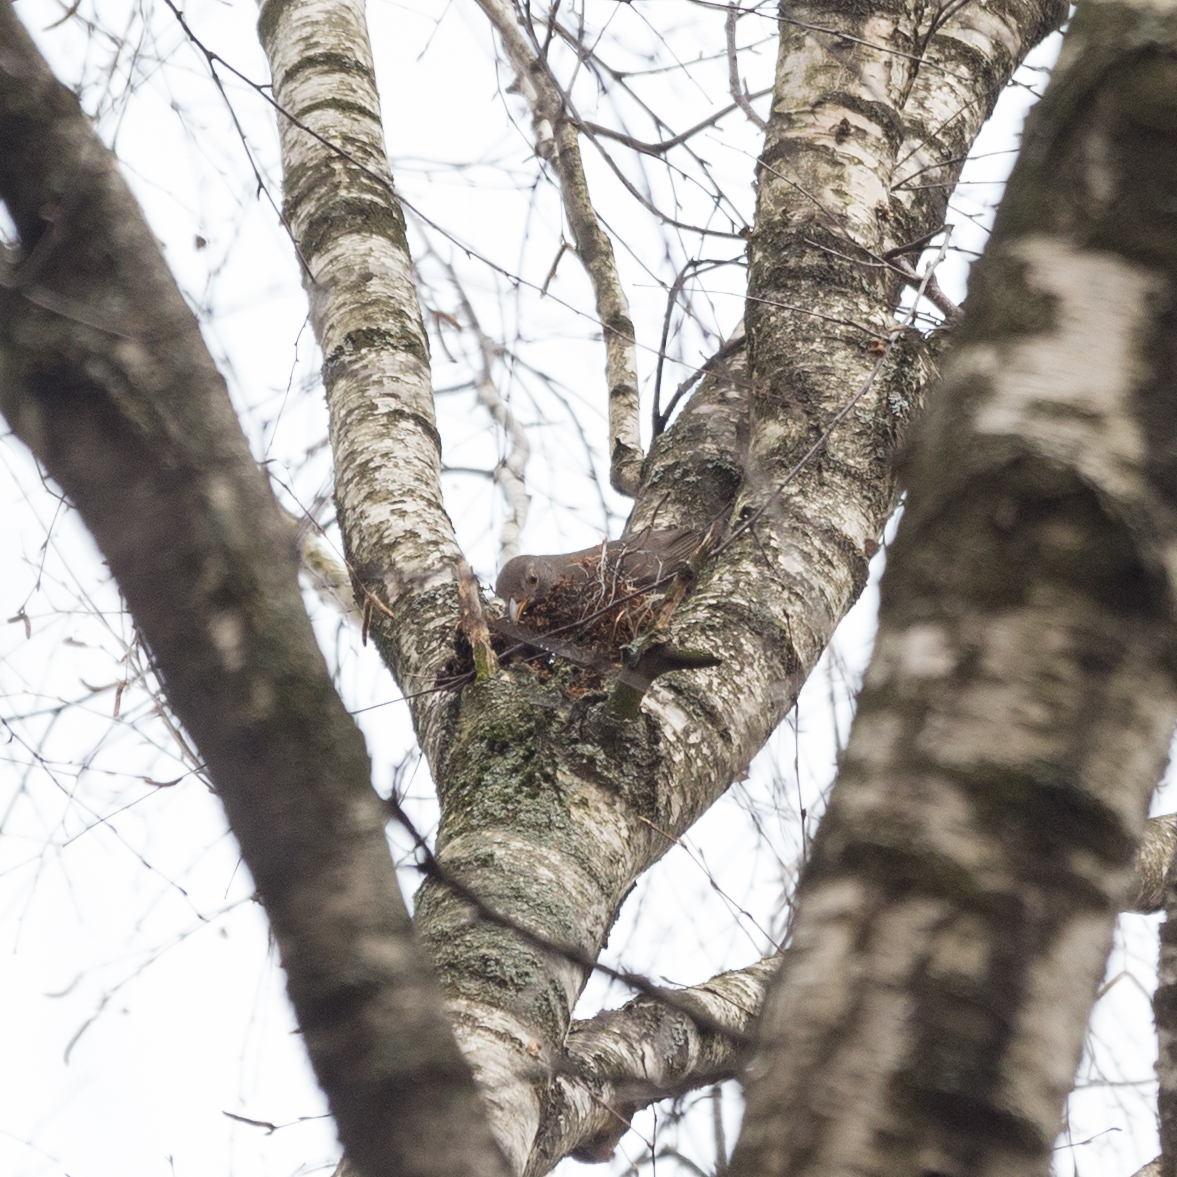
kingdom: Animalia
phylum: Chordata
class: Aves
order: Passeriformes
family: Turdidae
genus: Turdus
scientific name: Turdus merula
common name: Common blackbird
